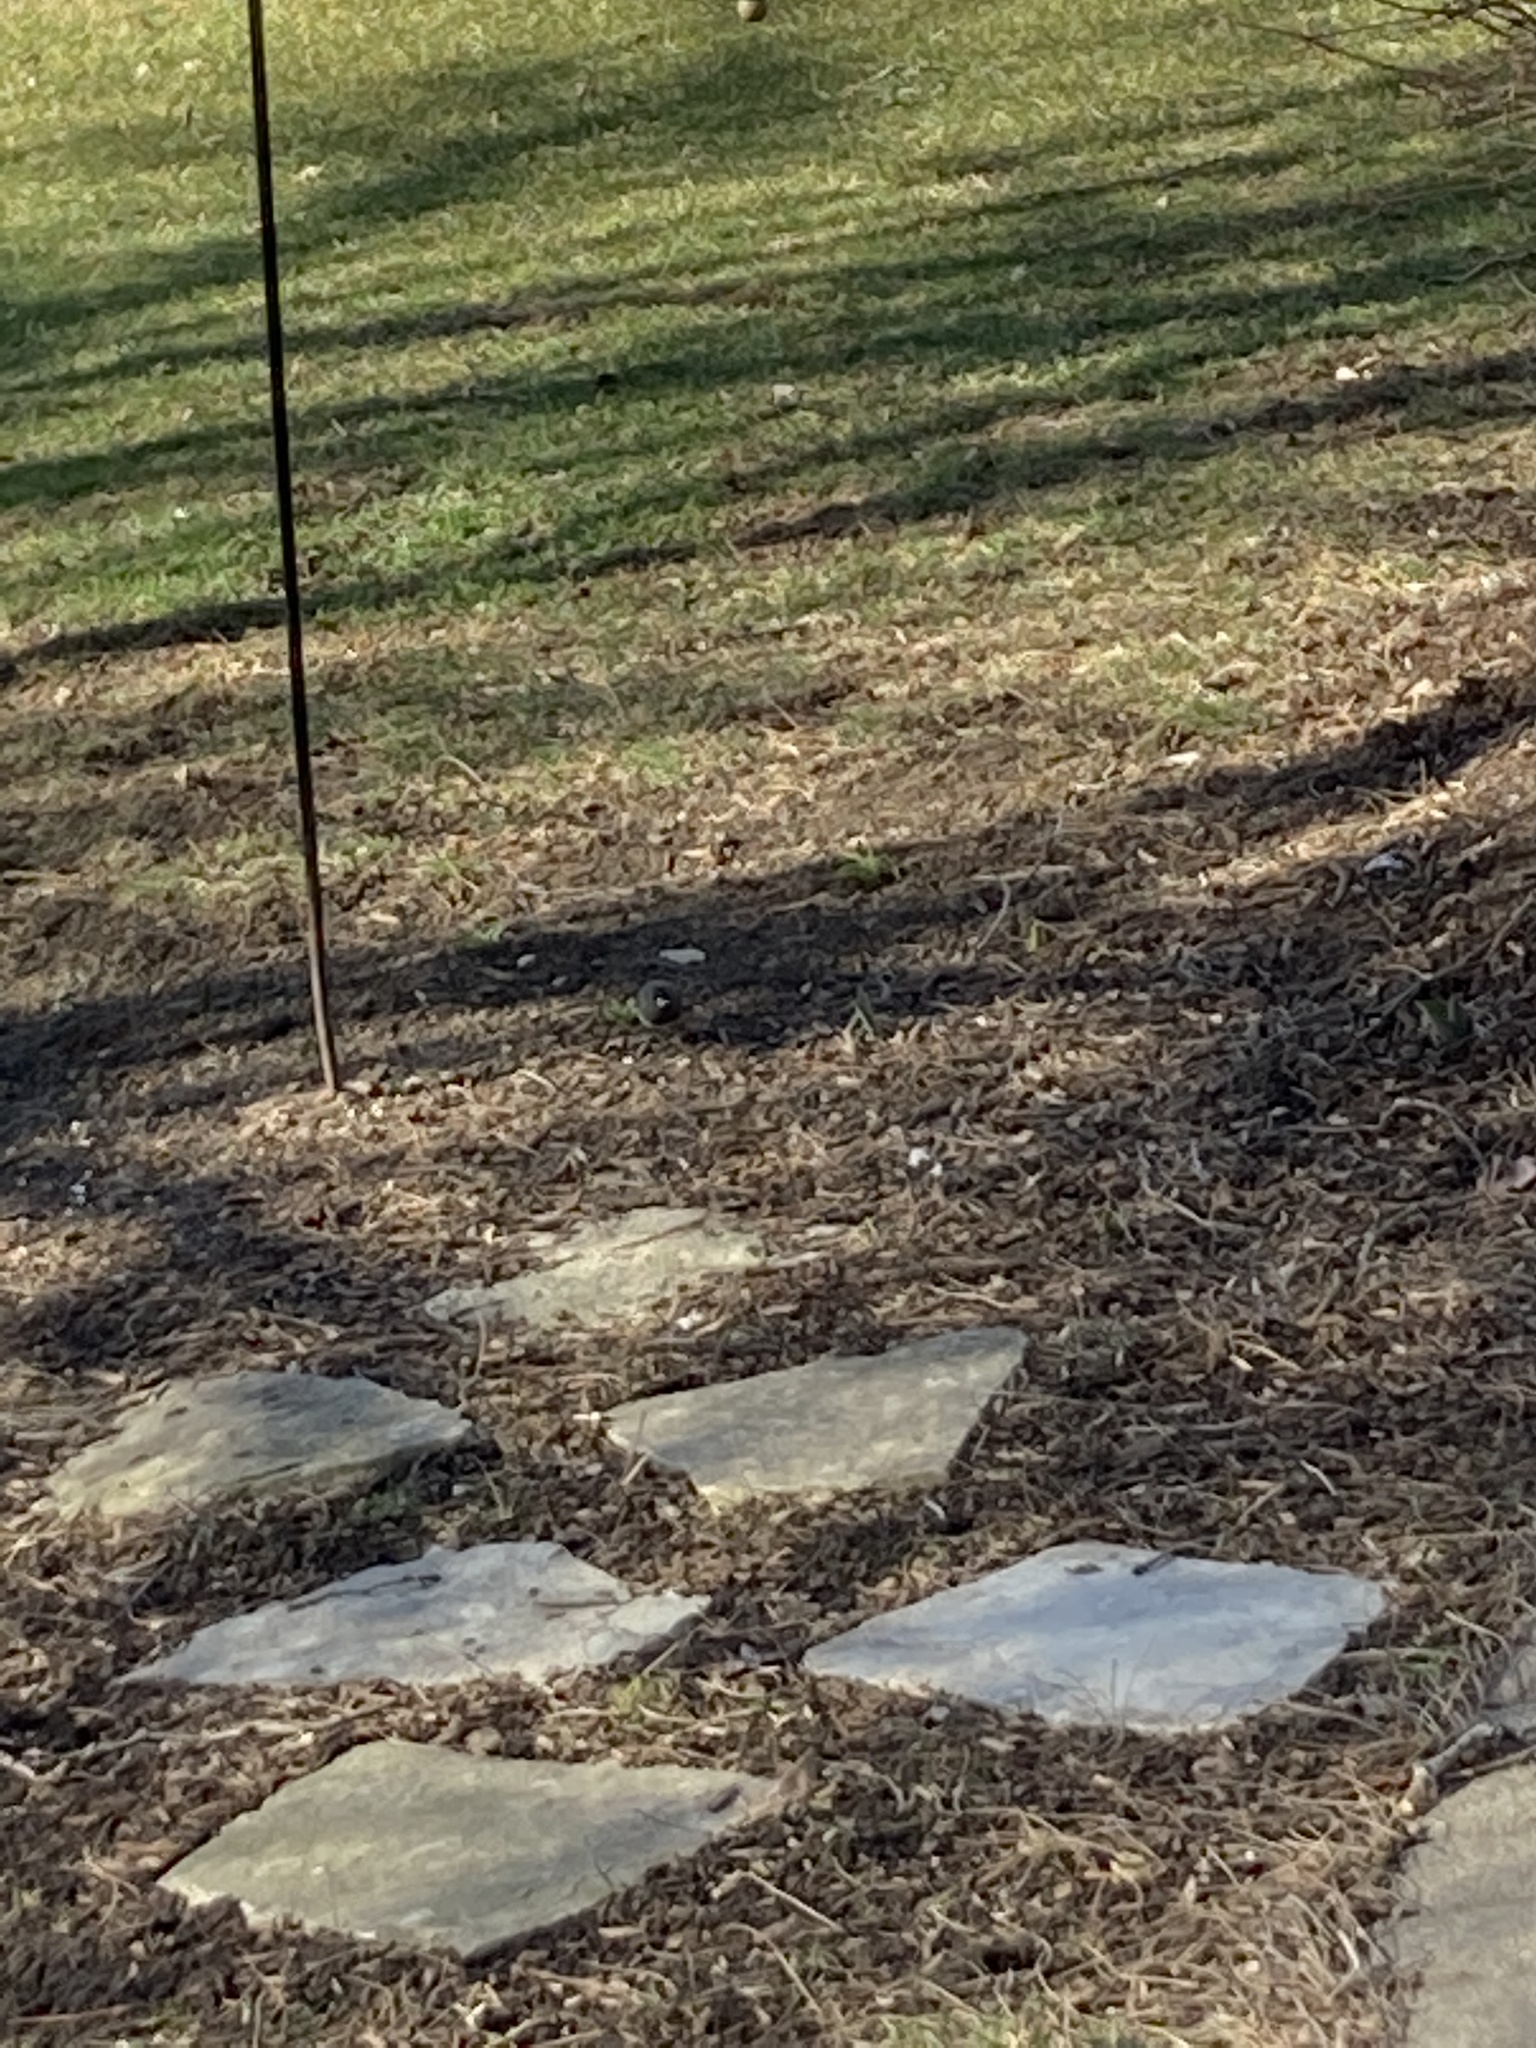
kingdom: Animalia
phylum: Chordata
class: Aves
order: Passeriformes
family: Passerellidae
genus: Junco
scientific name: Junco hyemalis
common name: Dark-eyed junco
